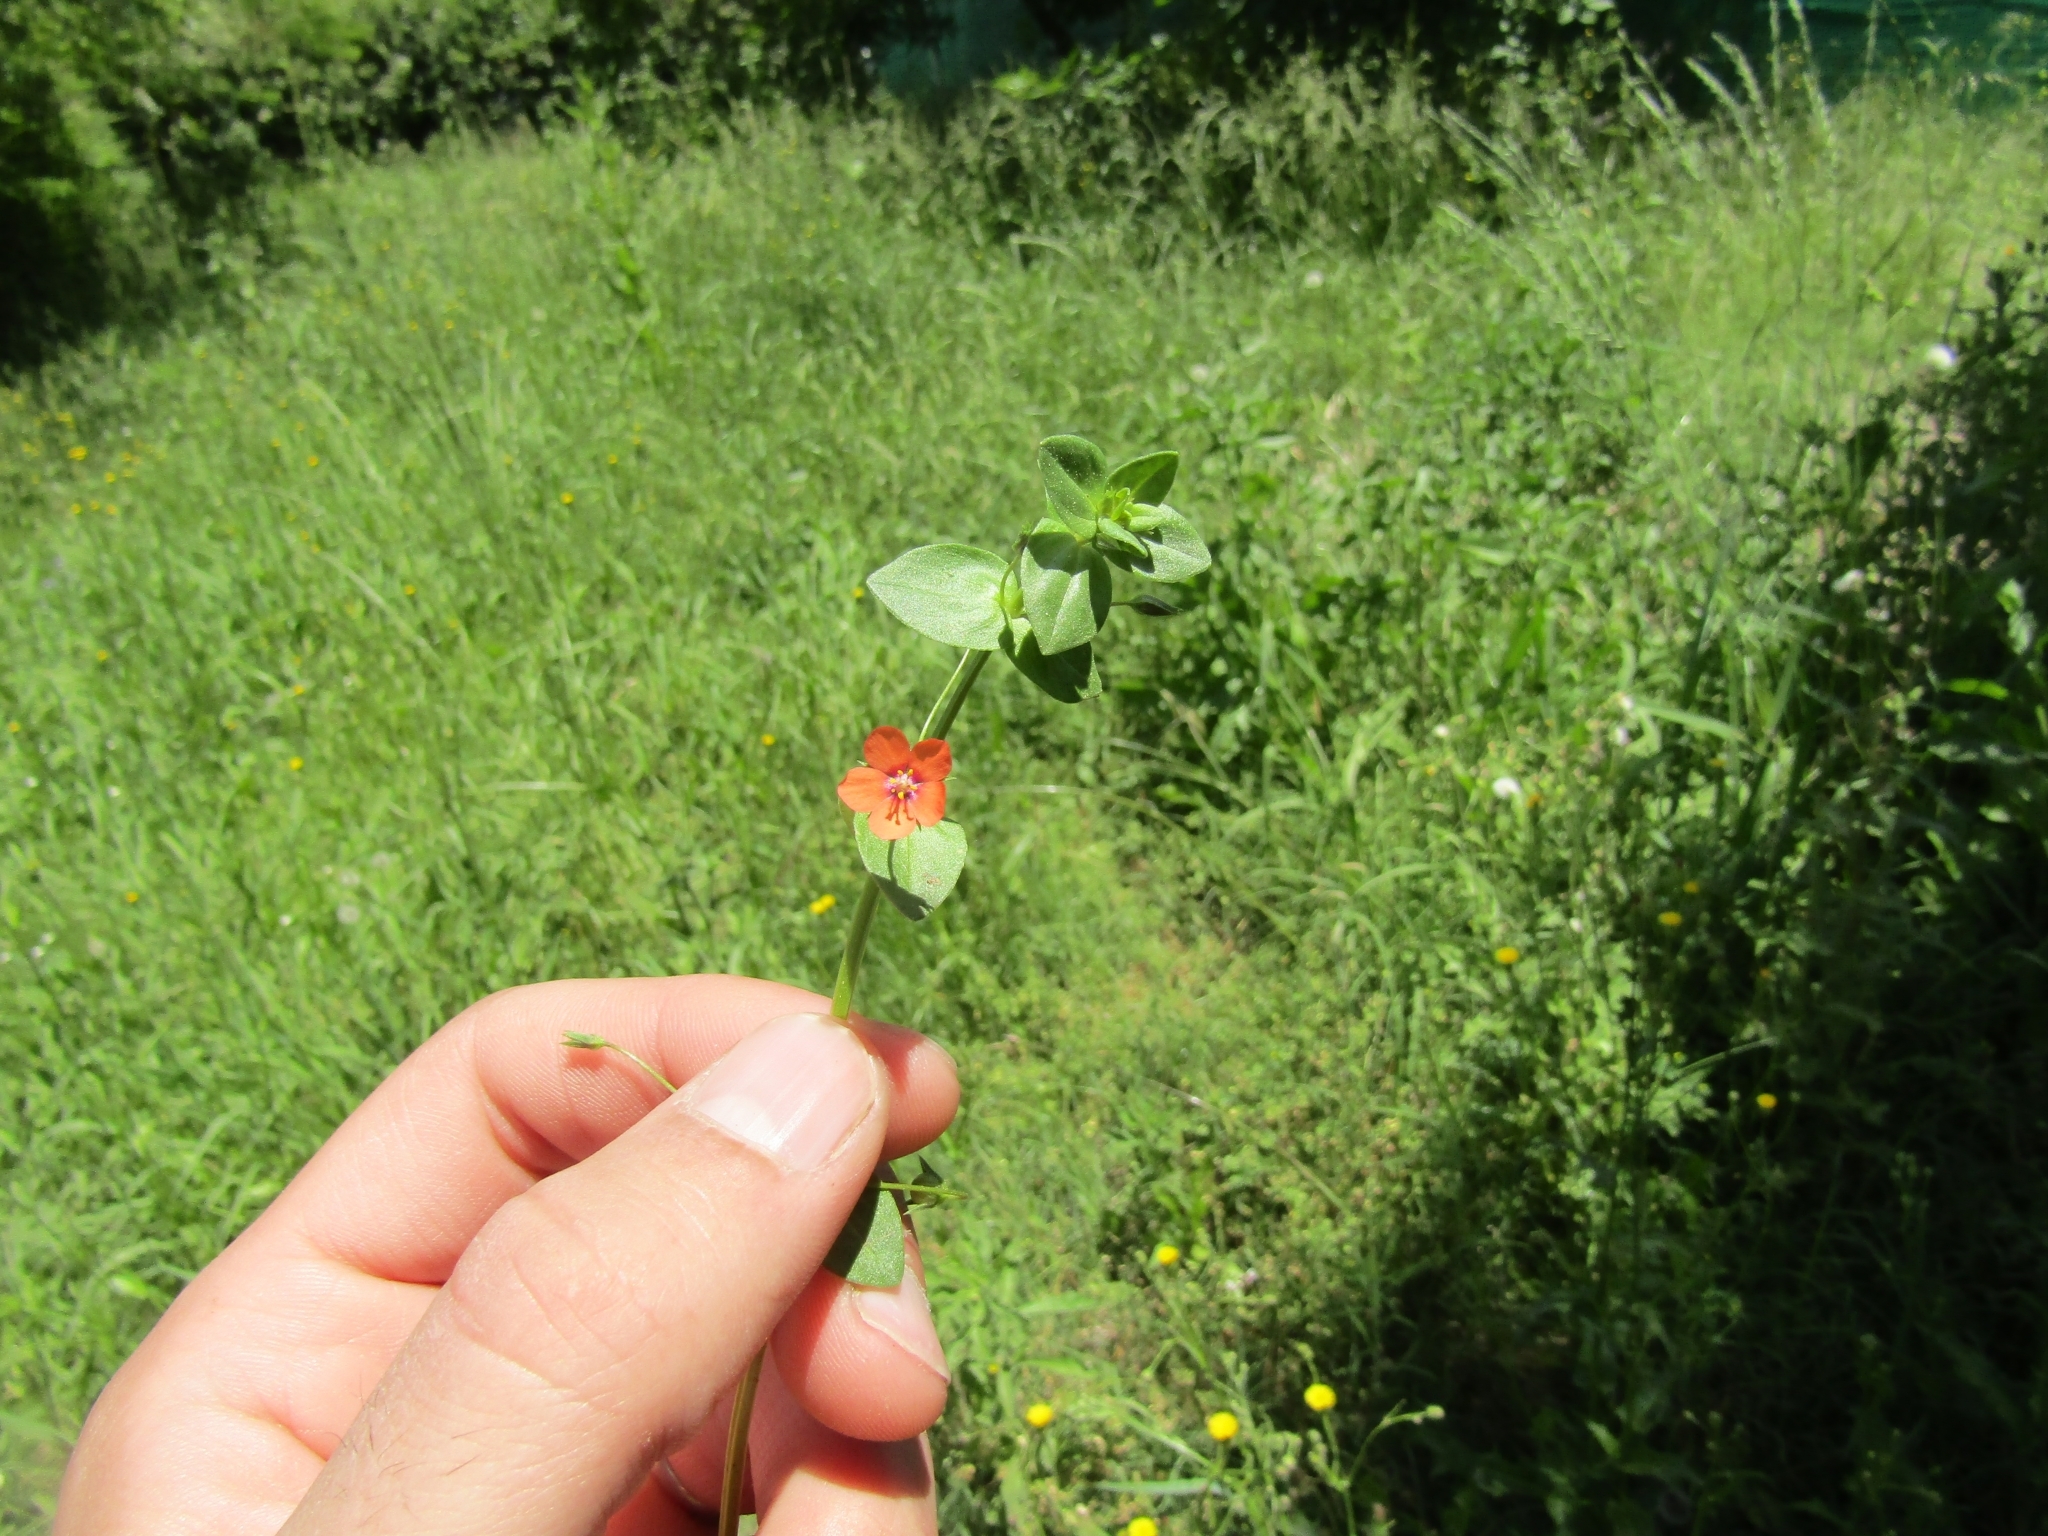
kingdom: Plantae
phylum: Tracheophyta
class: Magnoliopsida
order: Ericales
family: Primulaceae
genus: Lysimachia
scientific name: Lysimachia arvensis
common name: Scarlet pimpernel
